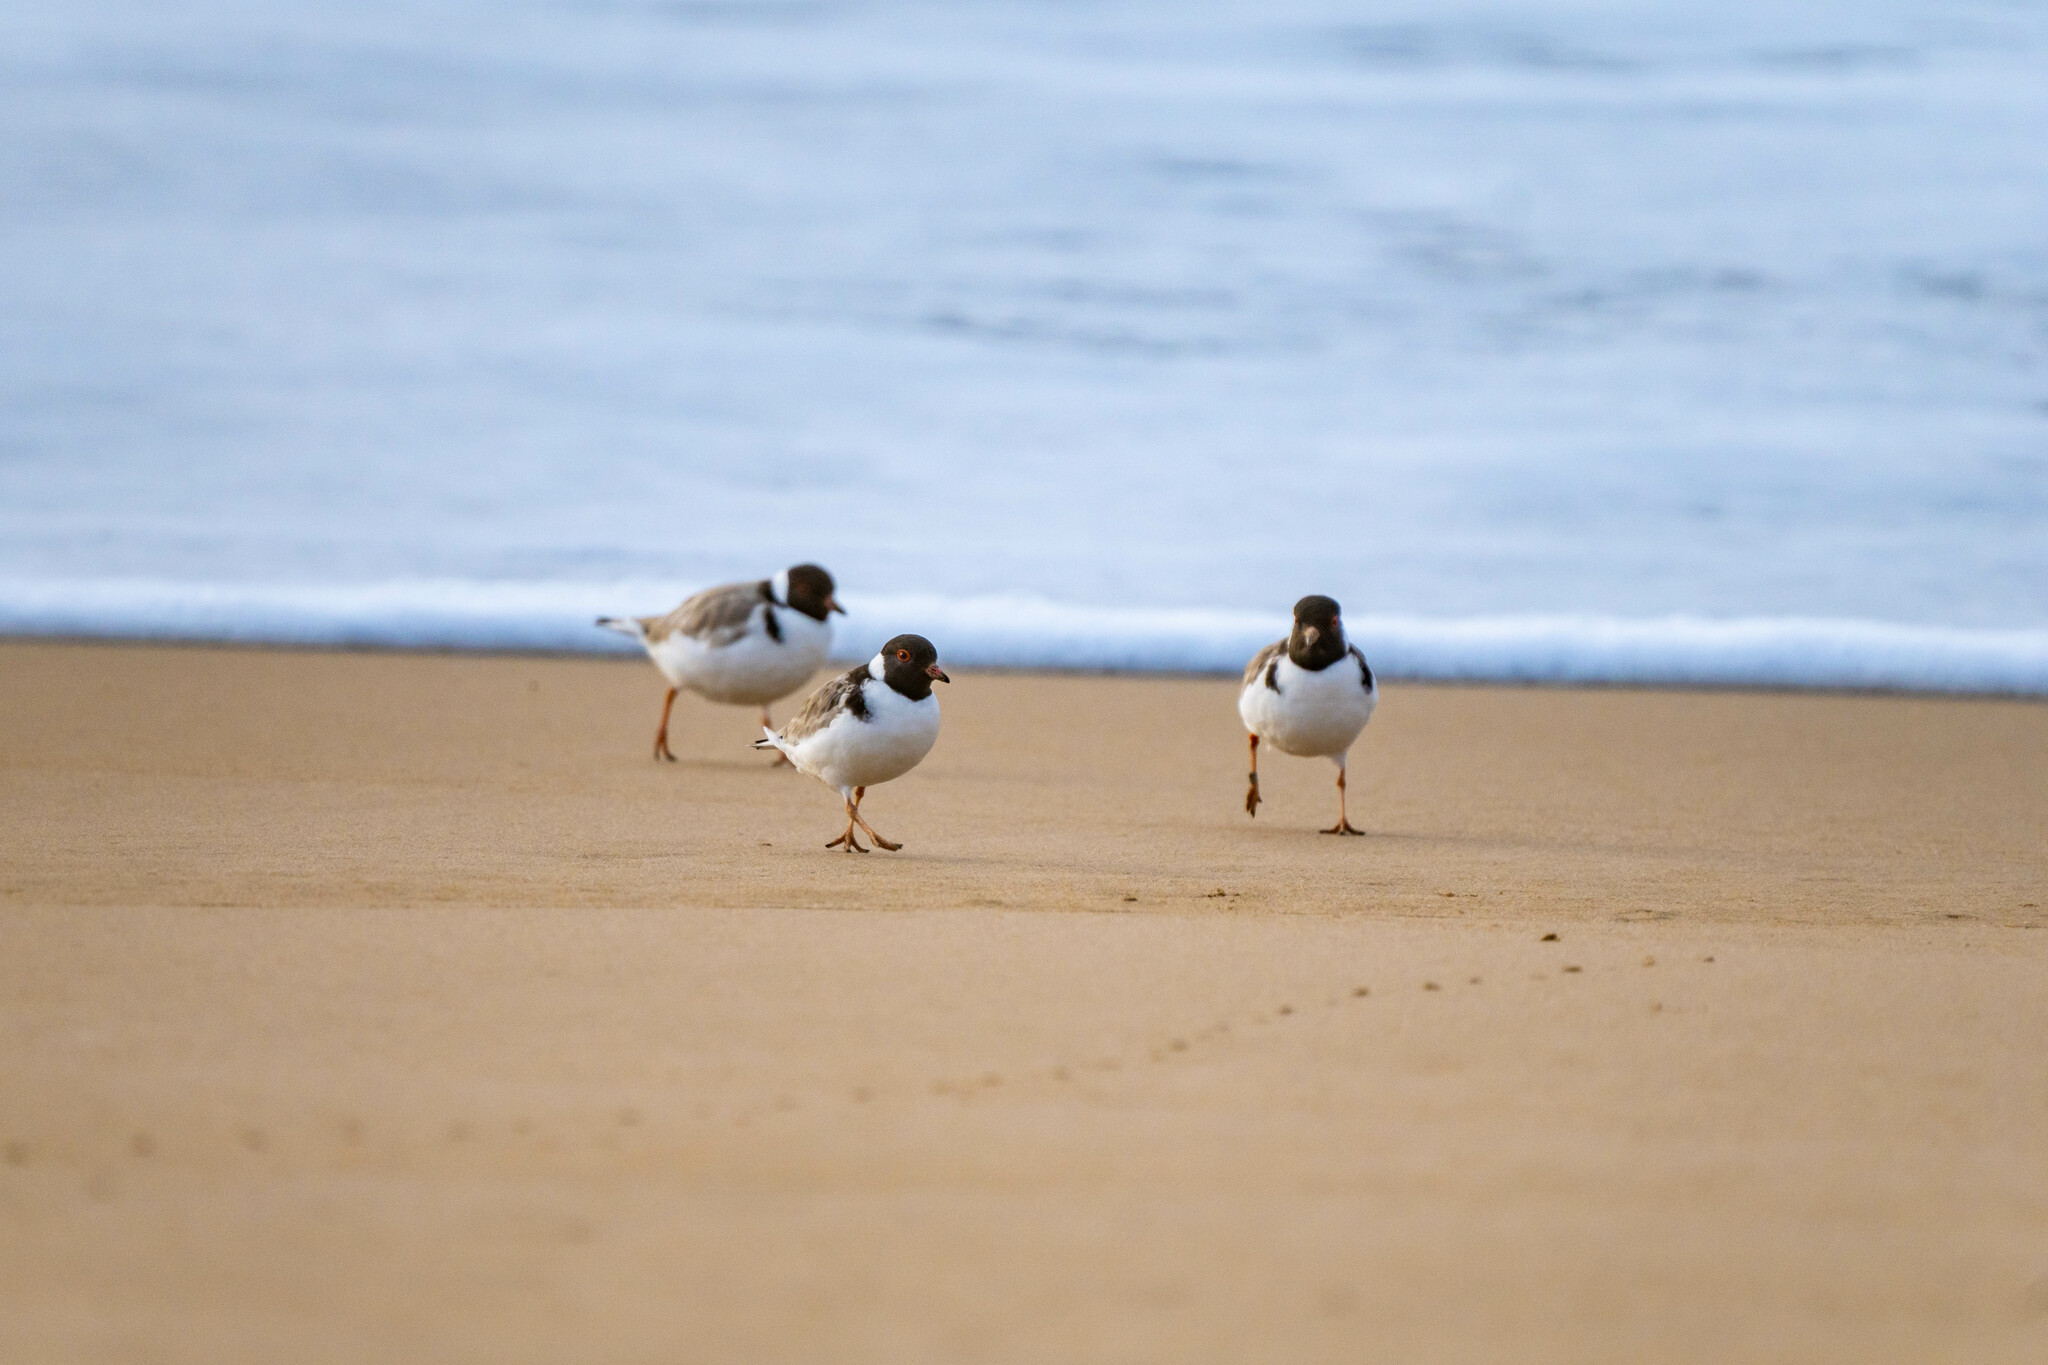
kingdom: Animalia
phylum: Chordata
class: Aves
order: Charadriiformes
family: Charadriidae
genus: Thinornis
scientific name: Thinornis cucullatus
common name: Hooded dotterel
